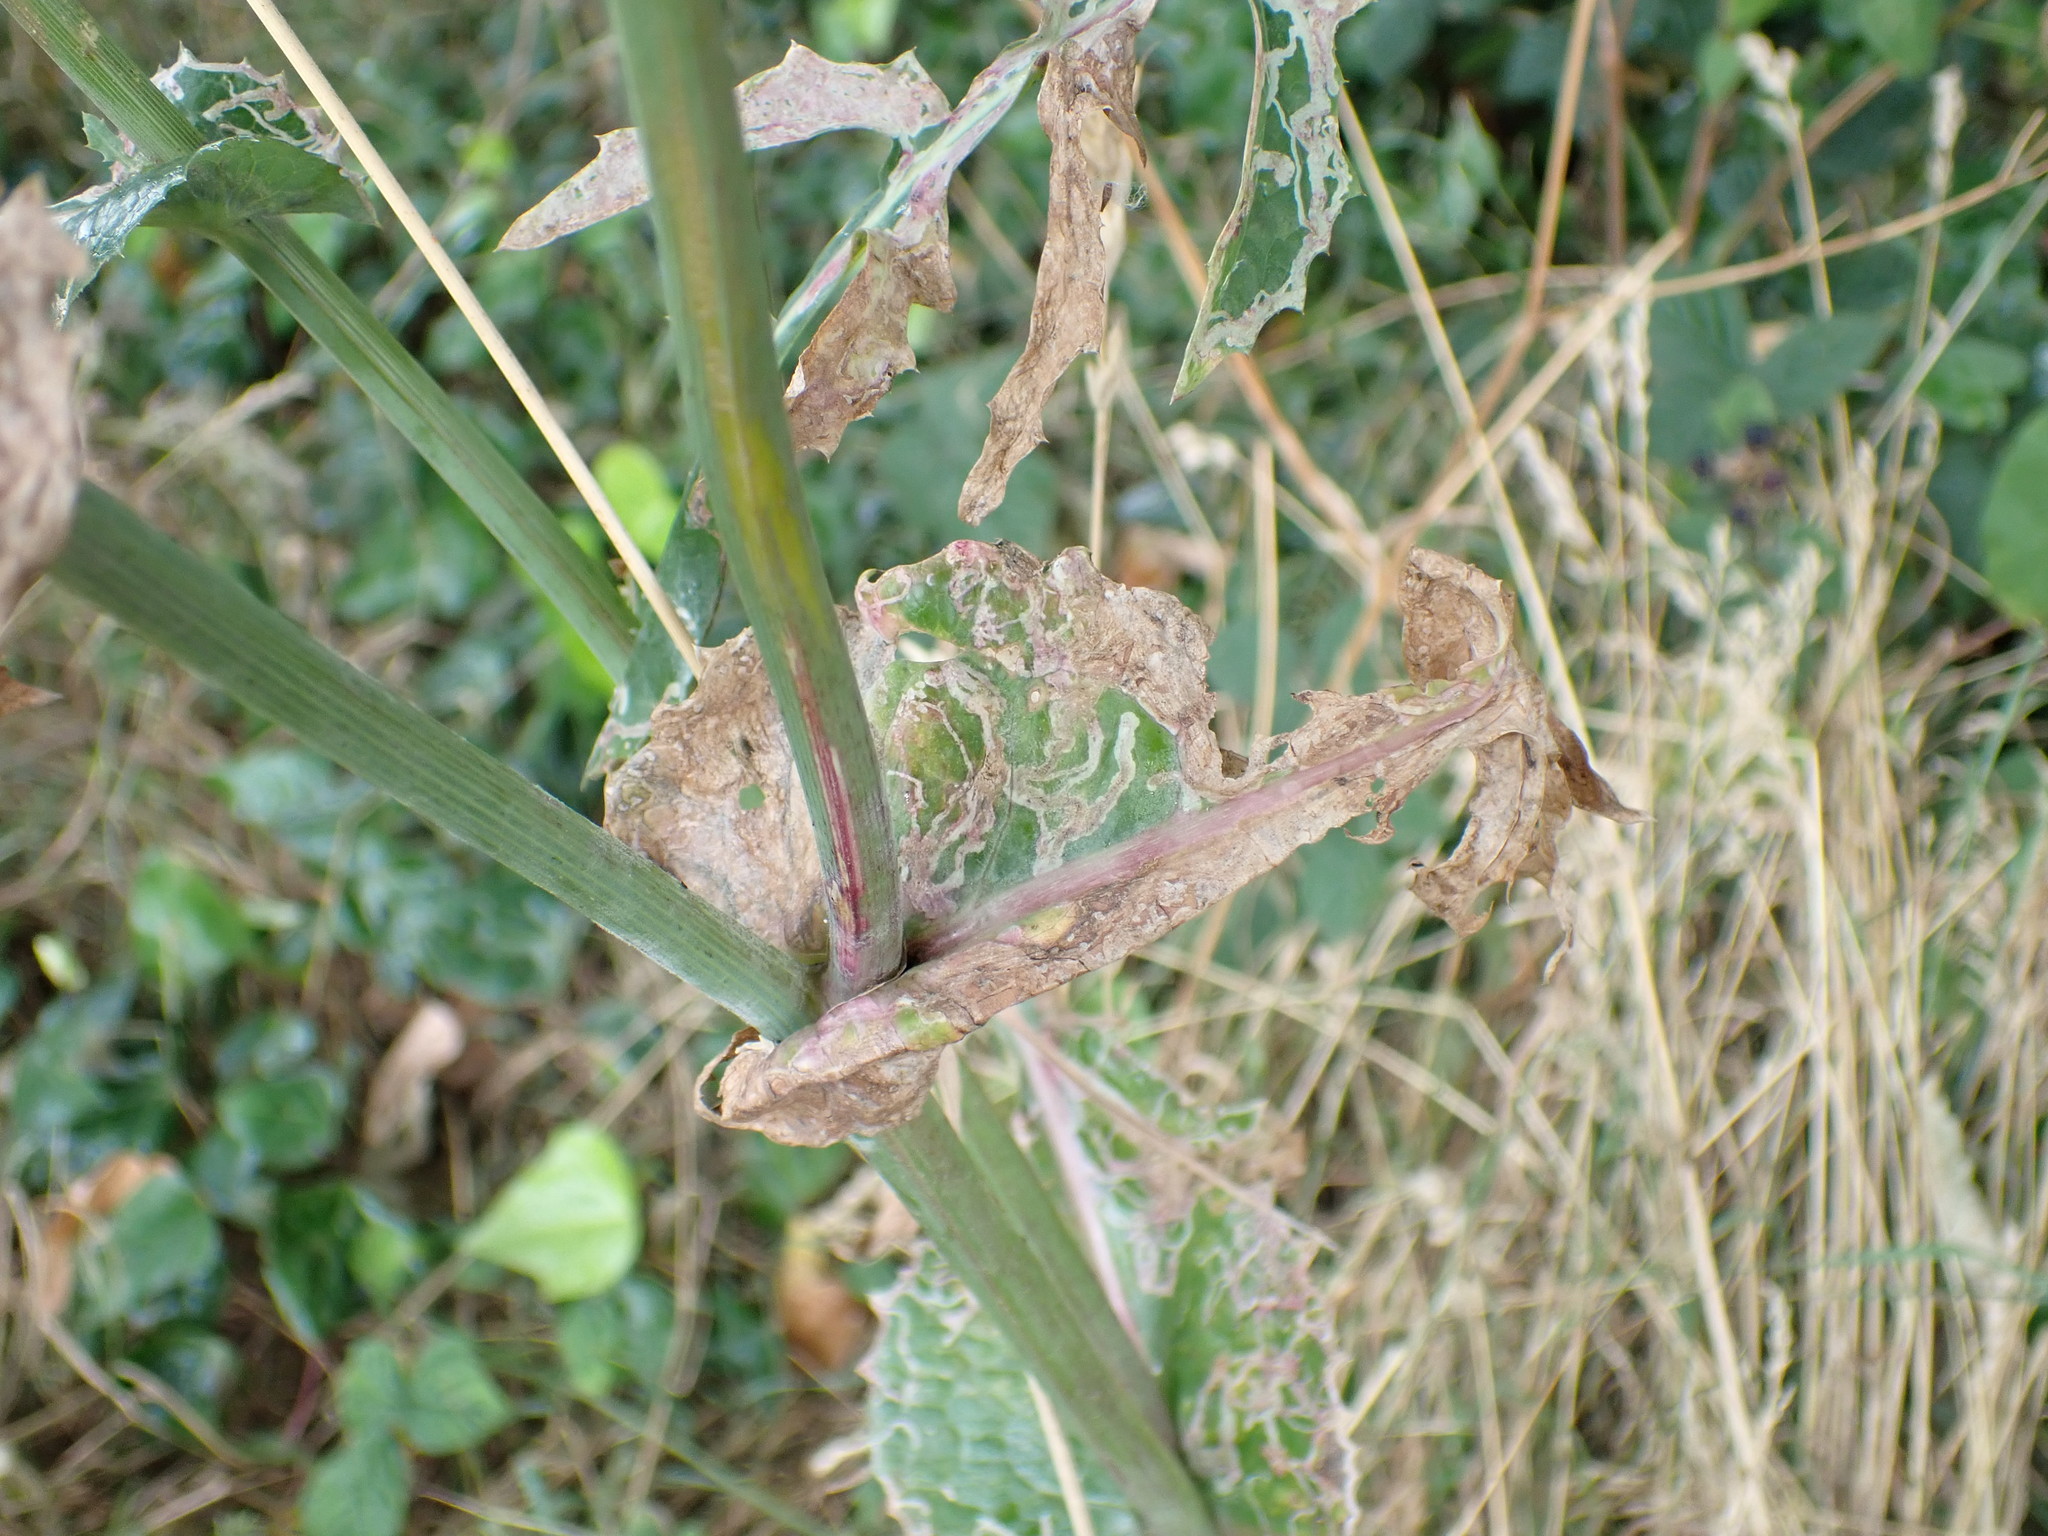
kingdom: Plantae
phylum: Tracheophyta
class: Magnoliopsida
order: Asterales
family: Asteraceae
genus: Sonchus
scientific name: Sonchus oleraceus
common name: Common sowthistle
